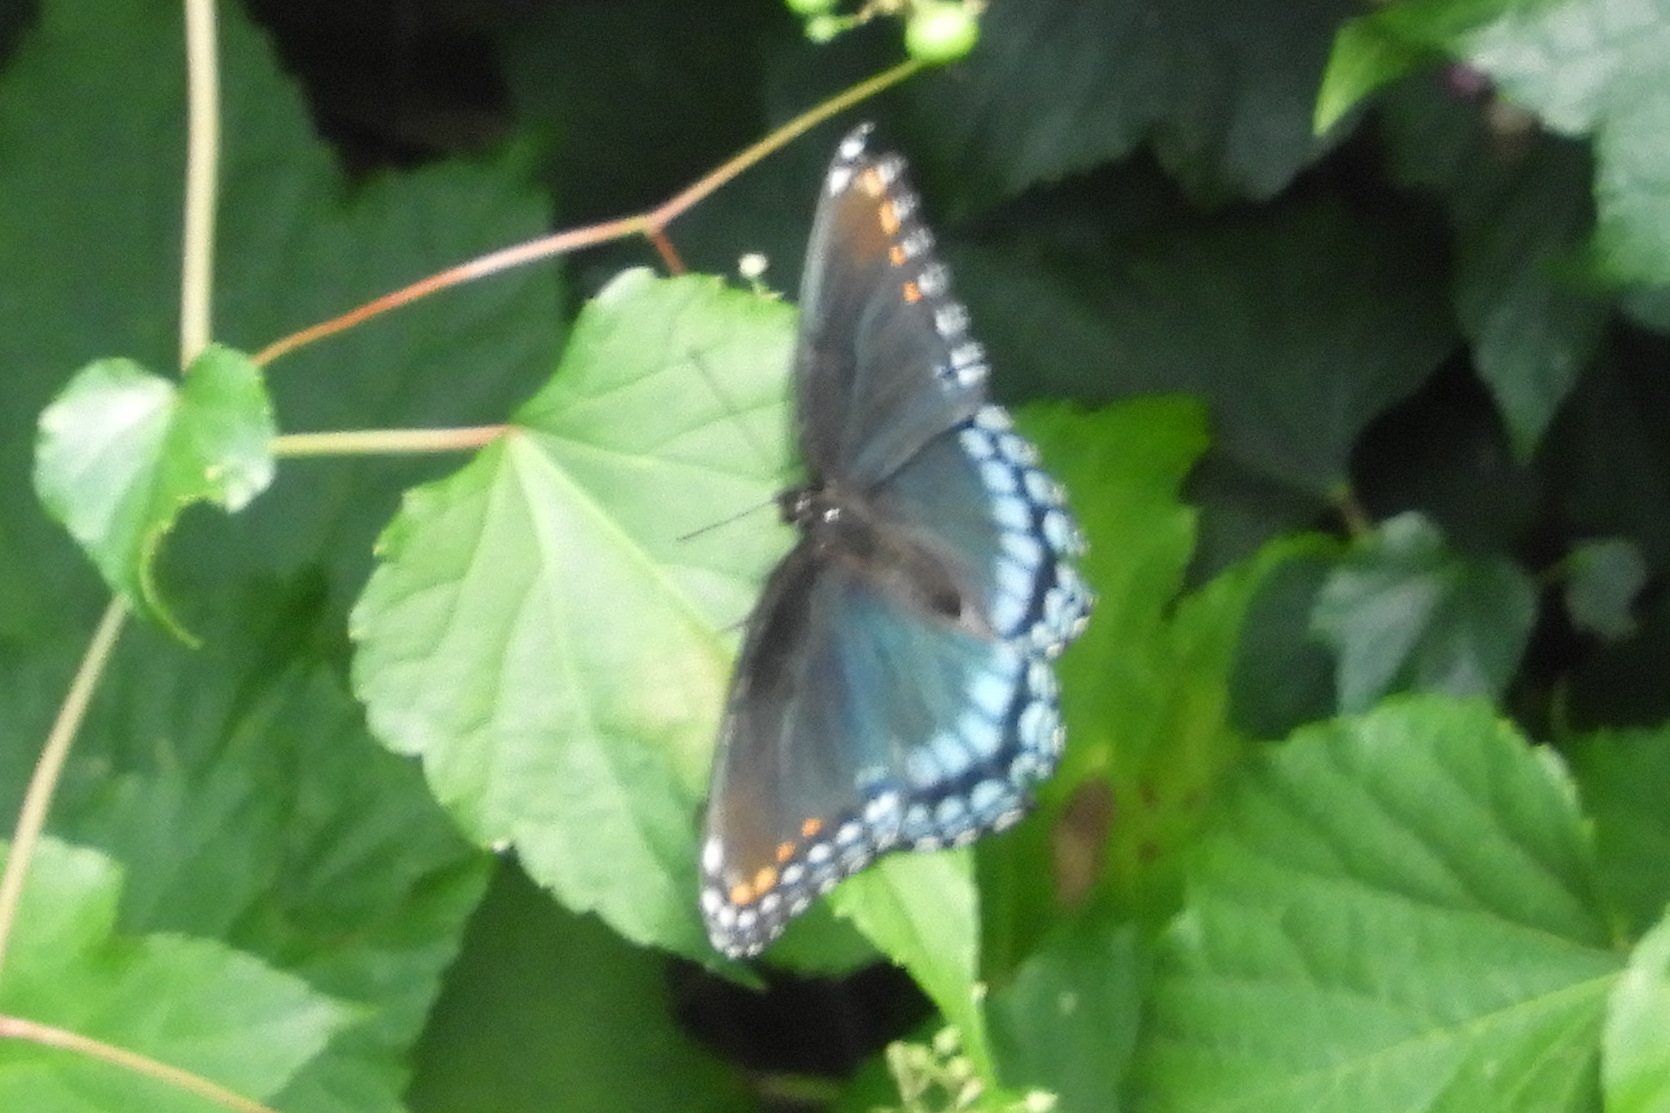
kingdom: Animalia
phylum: Arthropoda
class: Insecta
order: Lepidoptera
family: Nymphalidae
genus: Limenitis
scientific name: Limenitis astyanax
